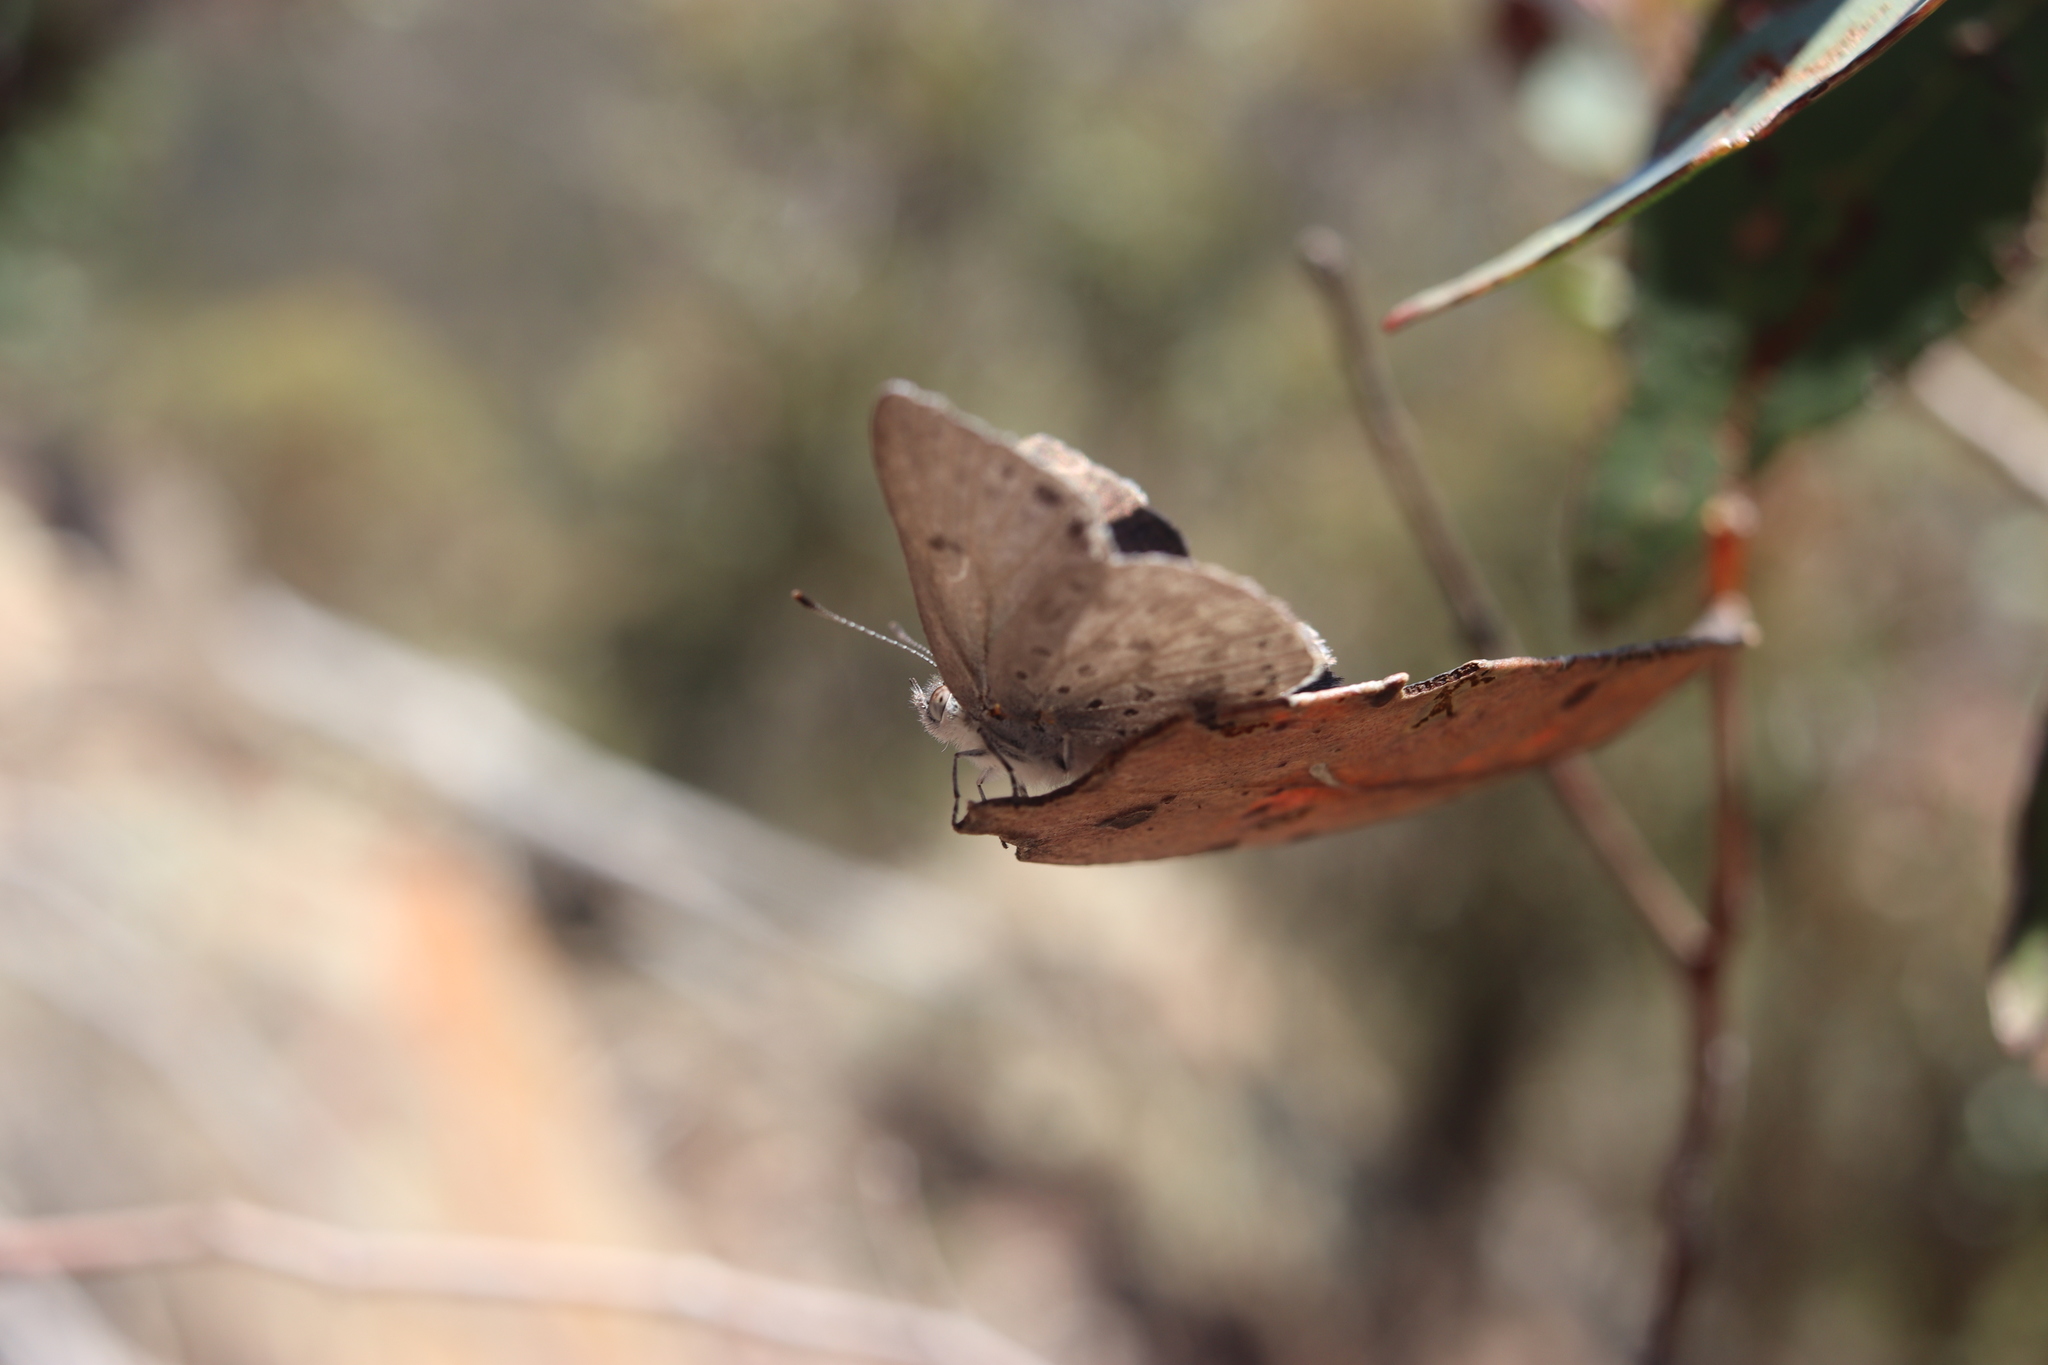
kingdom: Animalia
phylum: Arthropoda
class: Insecta
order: Lepidoptera
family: Lycaenidae
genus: Candalides
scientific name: Candalides
